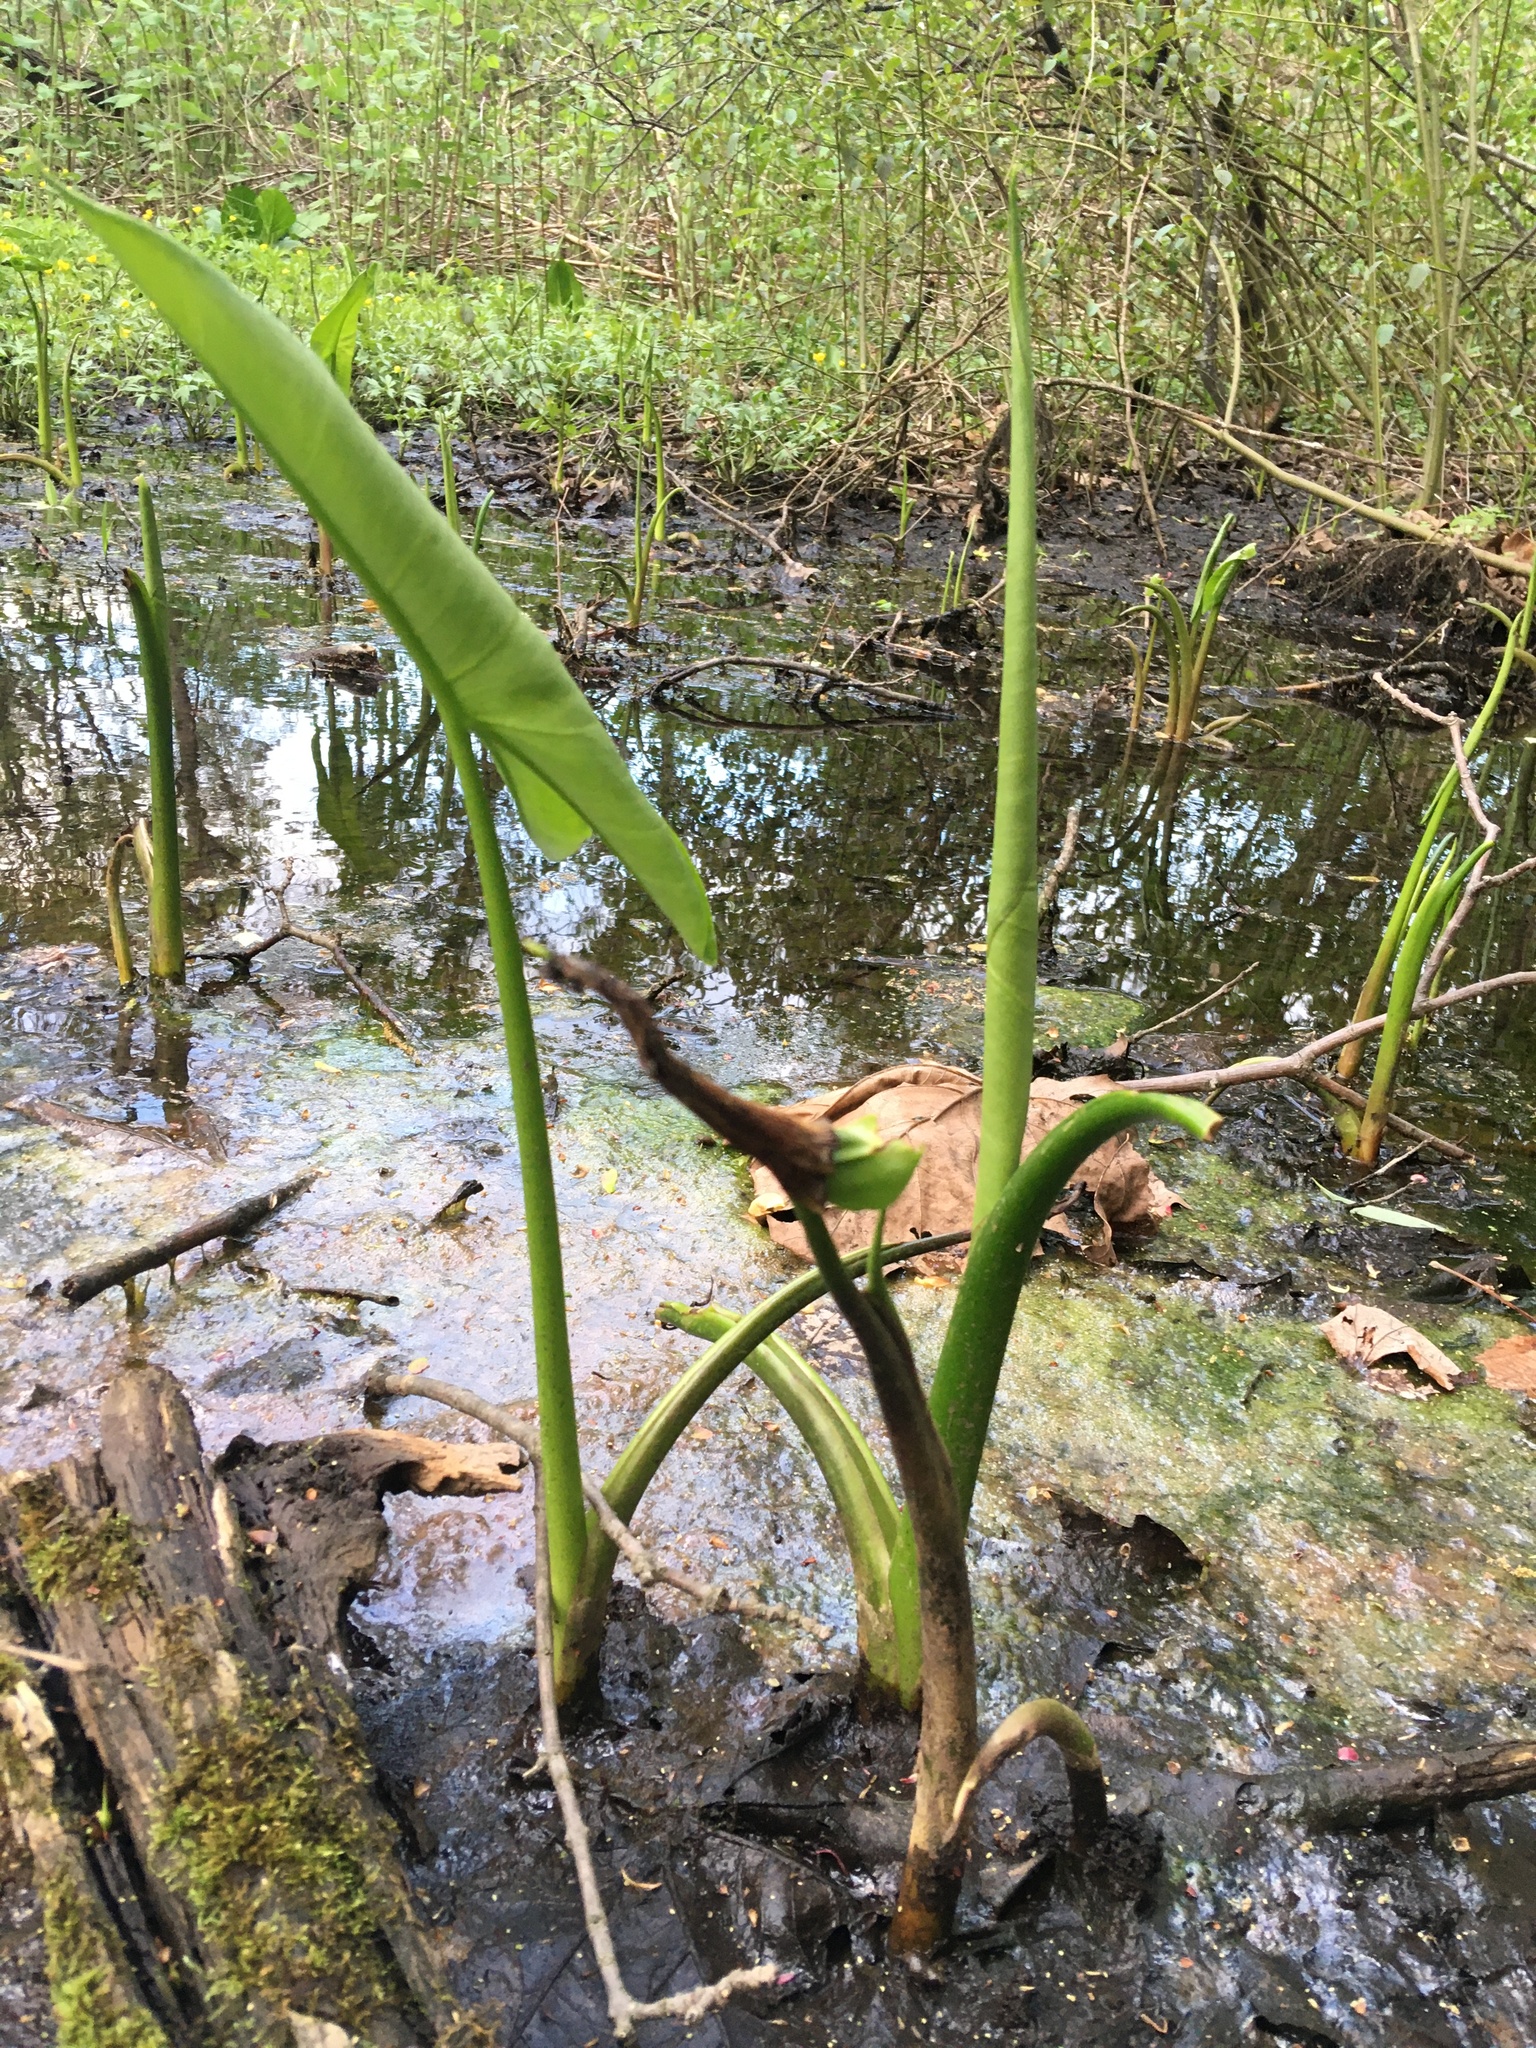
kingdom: Plantae
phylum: Tracheophyta
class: Liliopsida
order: Alismatales
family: Araceae
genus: Peltandra
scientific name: Peltandra virginica
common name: Arrow arum
